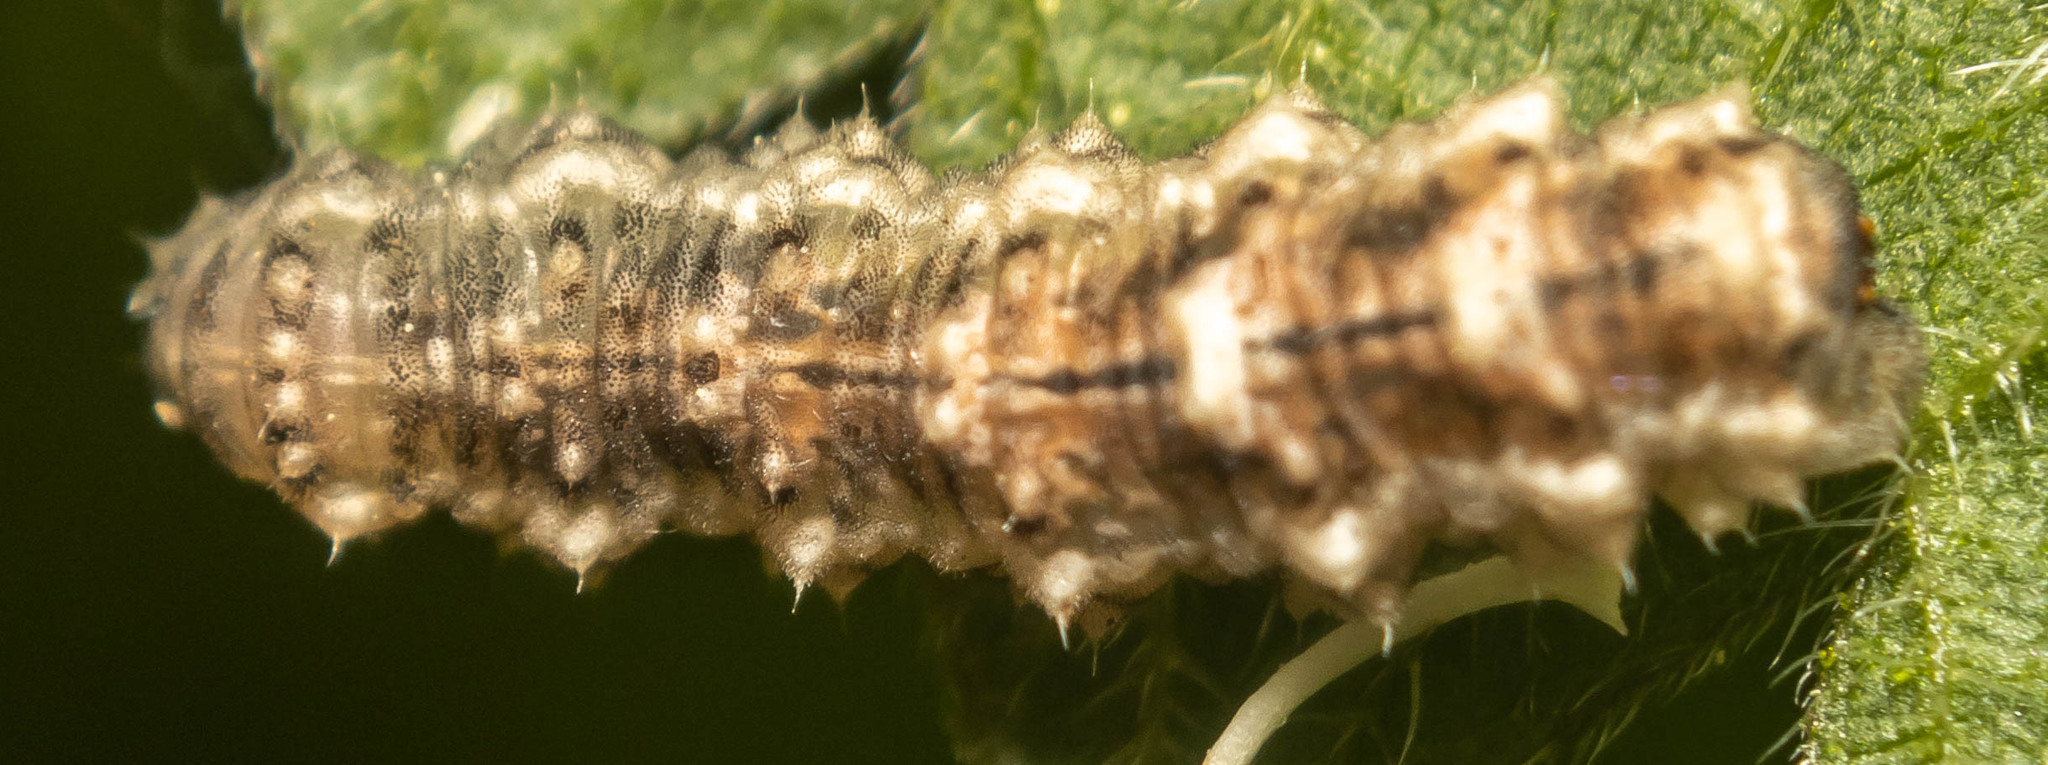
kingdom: Animalia
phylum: Arthropoda
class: Insecta
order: Diptera
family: Syrphidae
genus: Eupeodes
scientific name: Eupeodes
